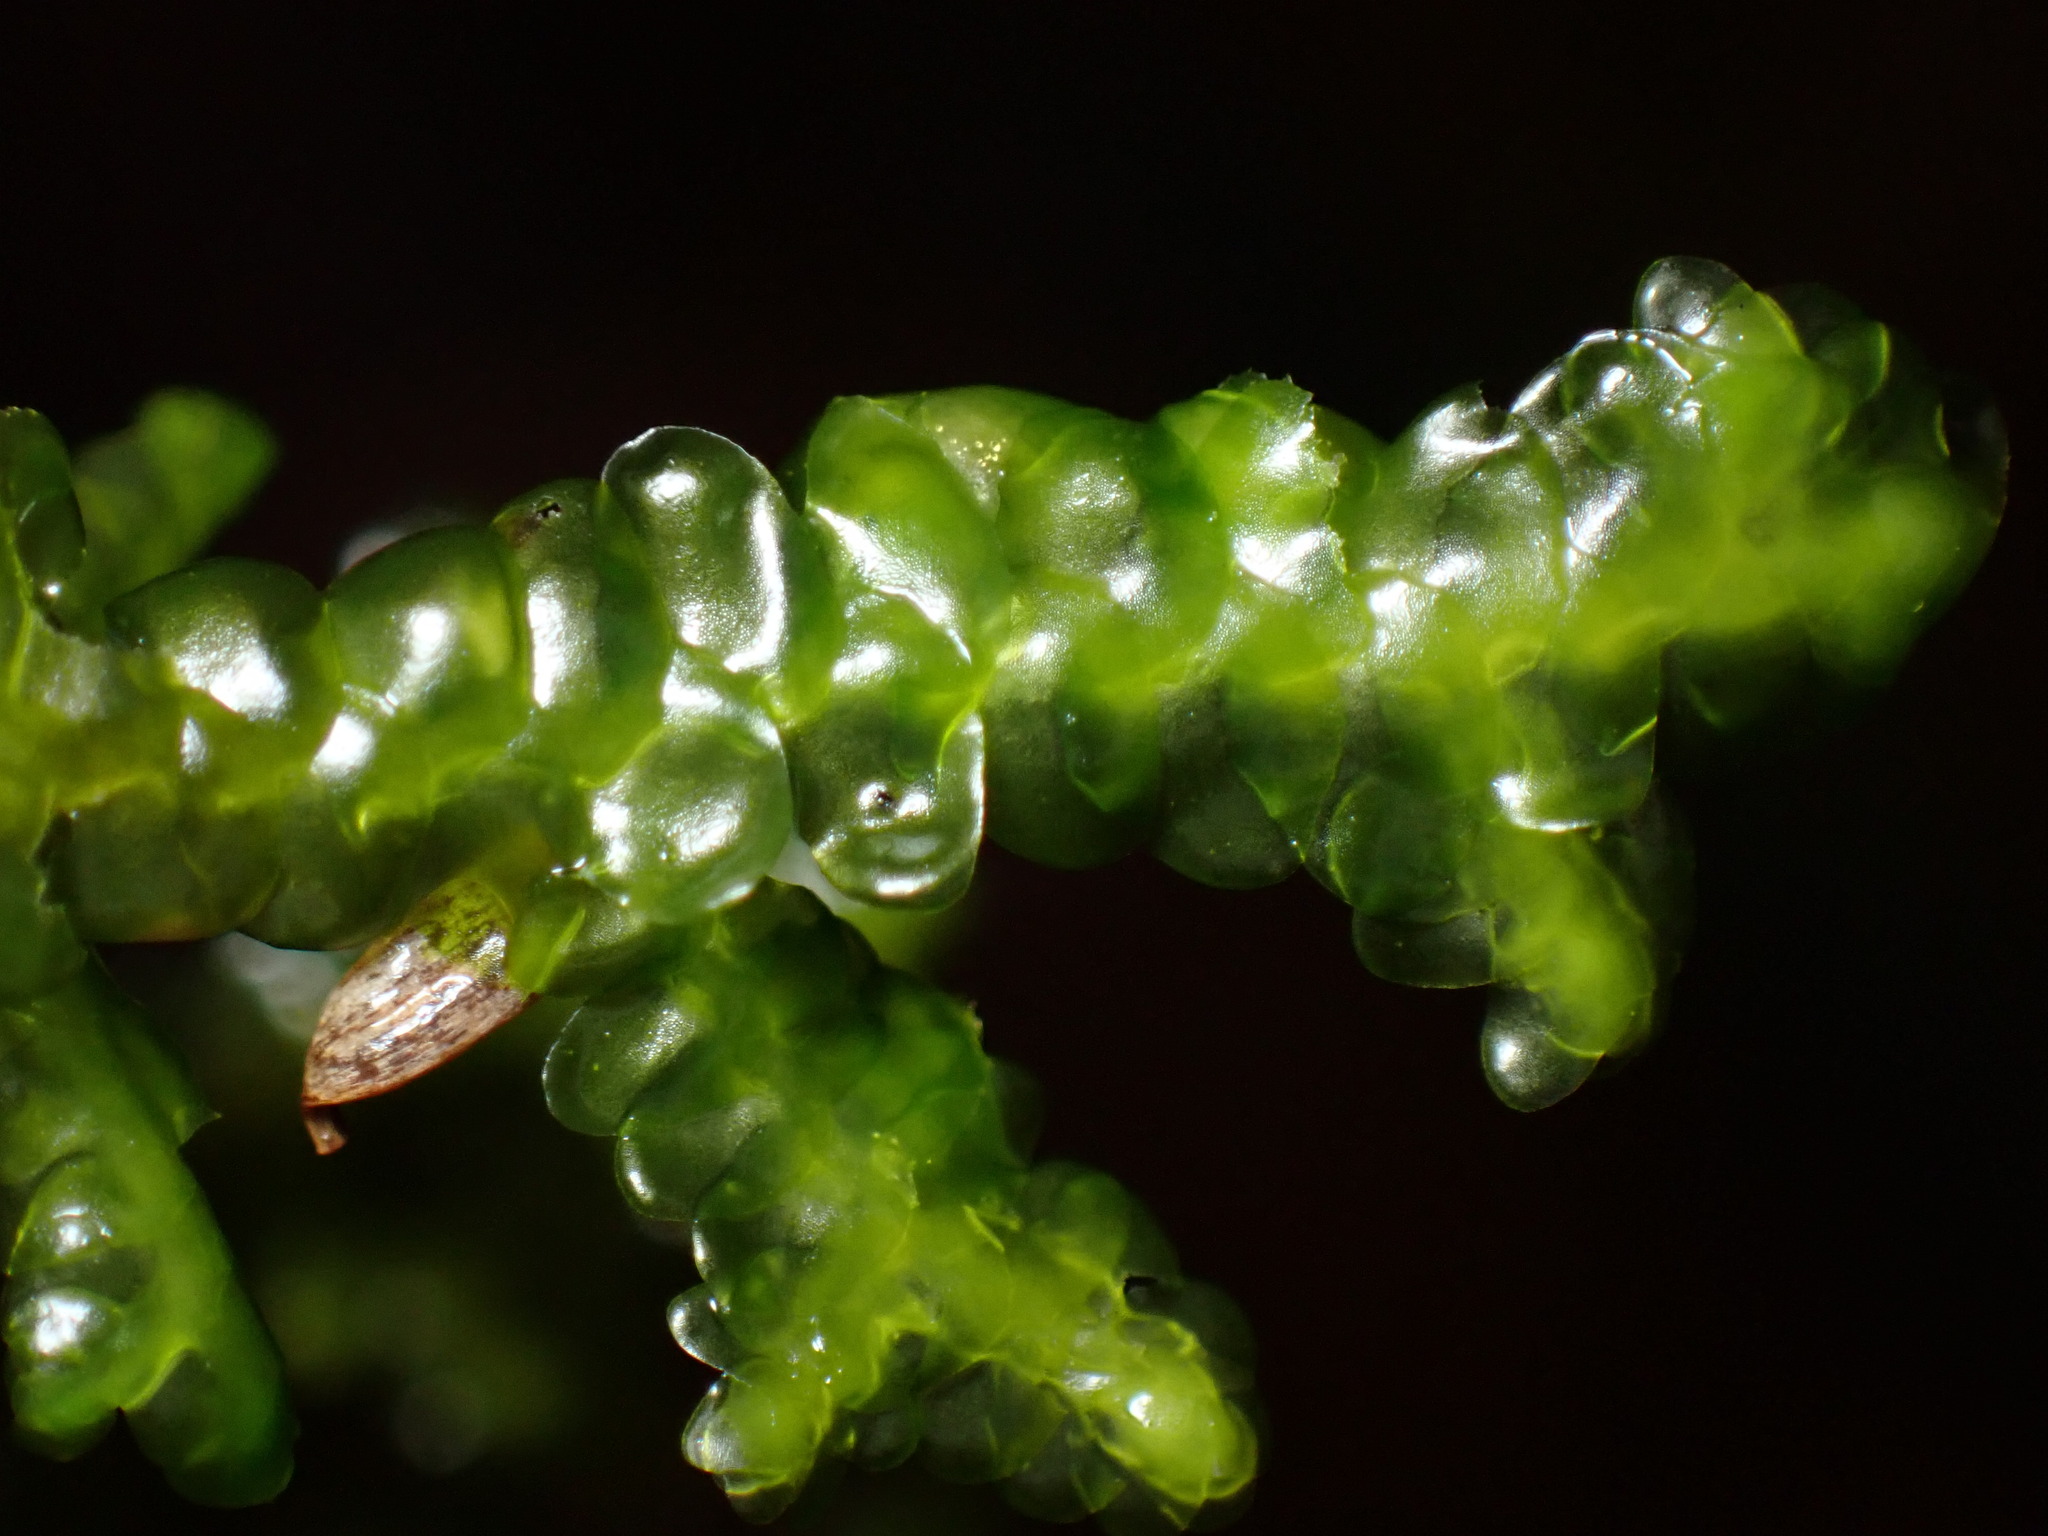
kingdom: Plantae
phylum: Marchantiophyta
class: Jungermanniopsida
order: Porellales
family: Porellaceae
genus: Porella
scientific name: Porella navicularis
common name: Tree ruffle liverwort
